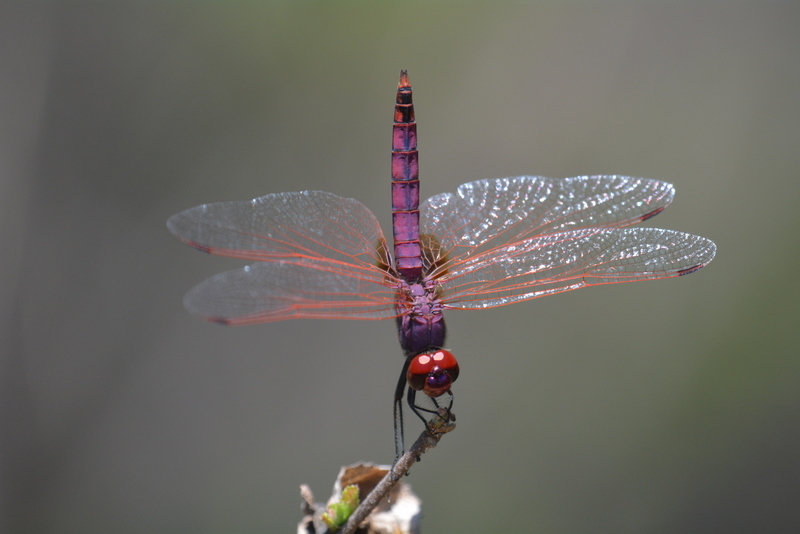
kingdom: Animalia
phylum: Arthropoda
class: Insecta
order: Odonata
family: Libellulidae
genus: Trithemis
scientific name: Trithemis annulata
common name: Violet dropwing
